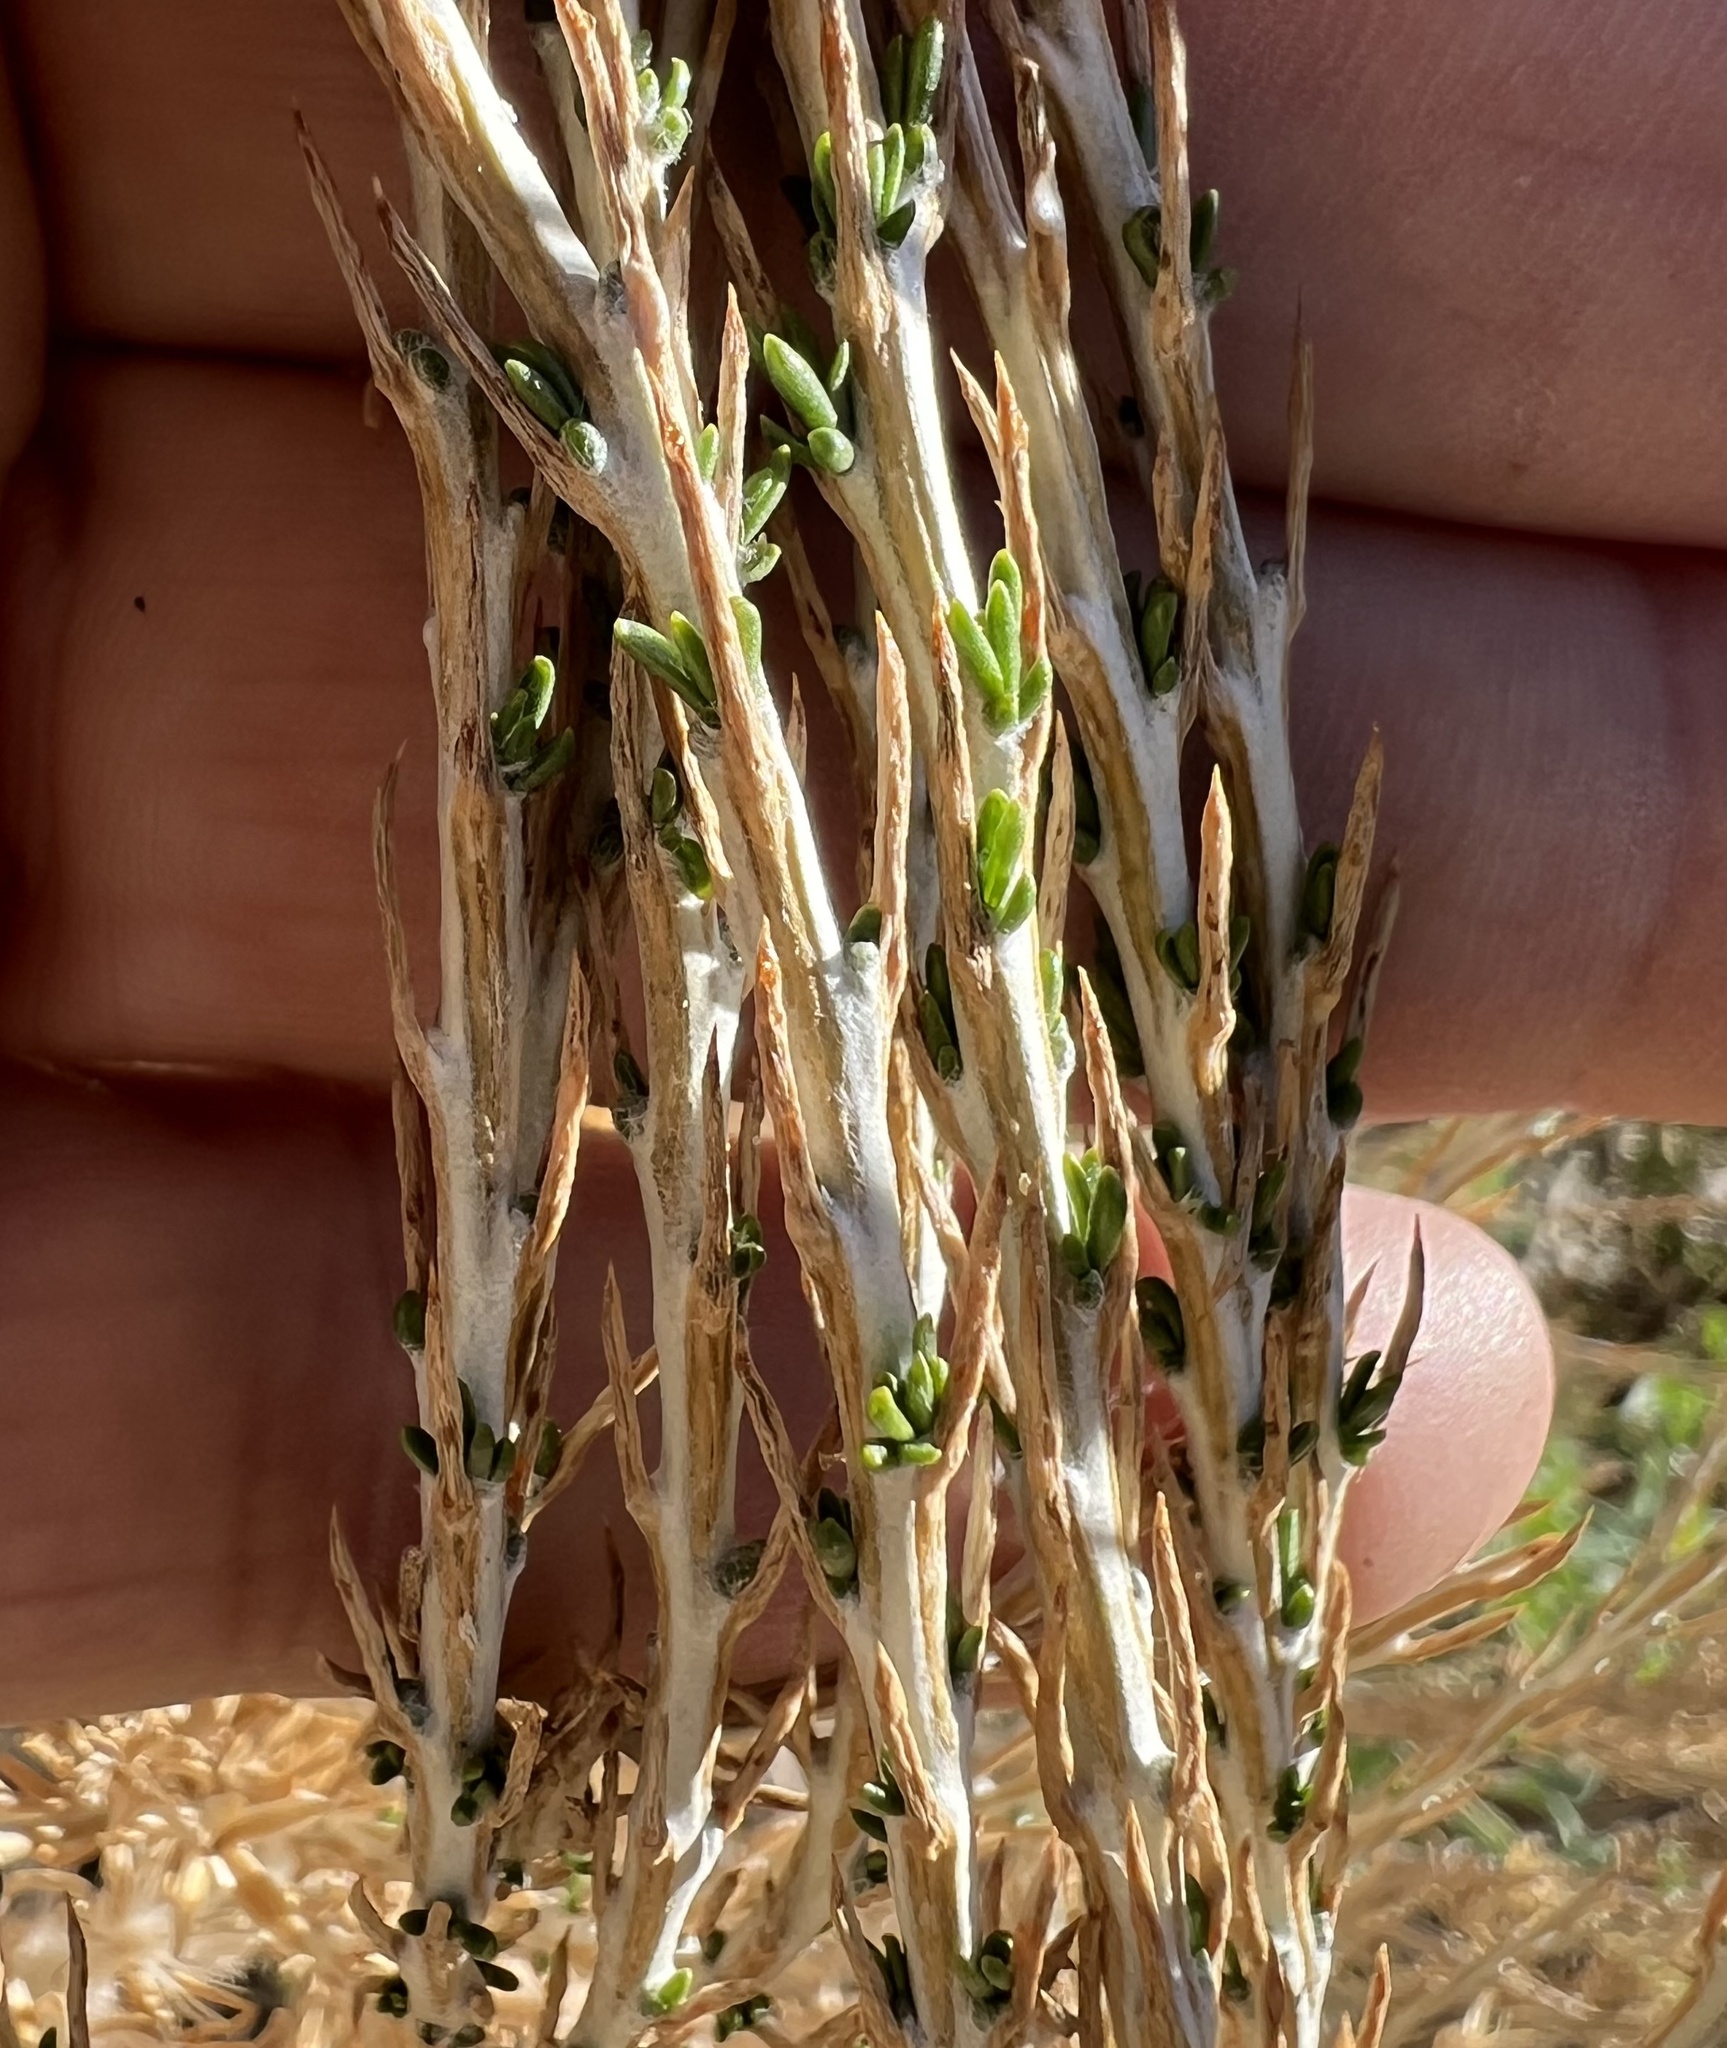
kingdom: Plantae
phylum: Tracheophyta
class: Magnoliopsida
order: Asterales
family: Asteraceae
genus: Tetradymia
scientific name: Tetradymia glabrata
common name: Smooth tetradymia
